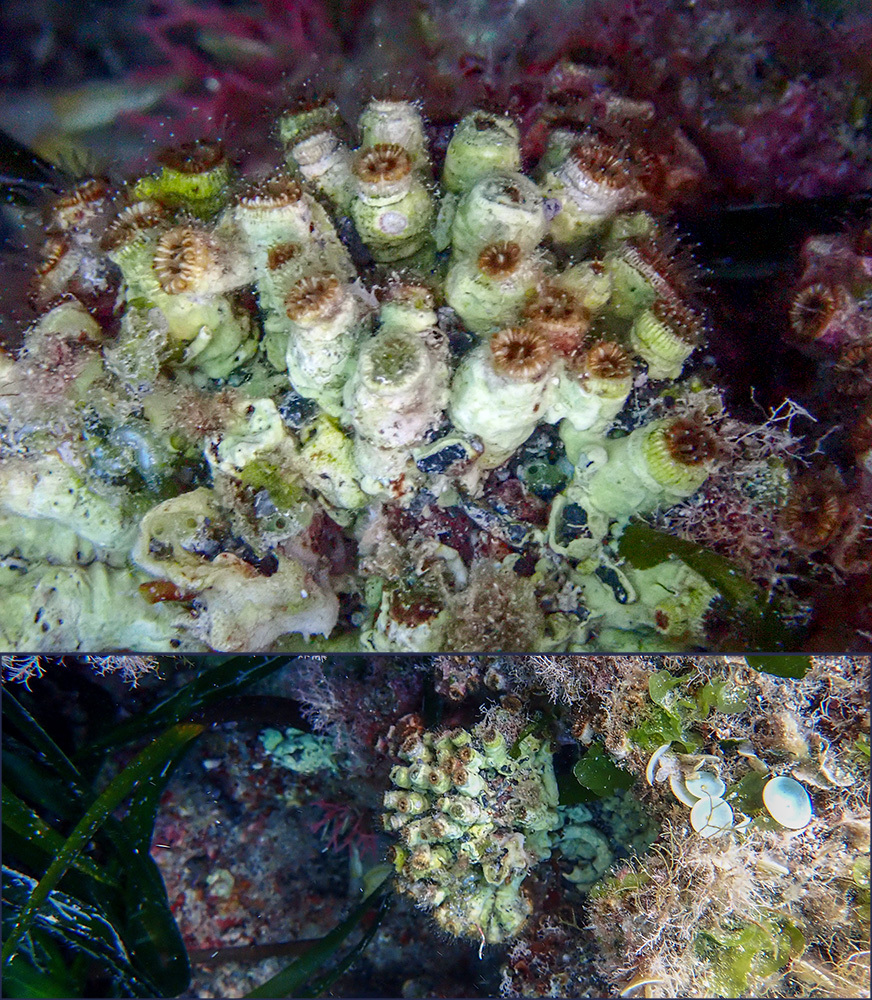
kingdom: Animalia
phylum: Cnidaria
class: Anthozoa
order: Scleractinia
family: Cladocoridae
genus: Cladocora
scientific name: Cladocora caespitosa
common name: Cladocora
